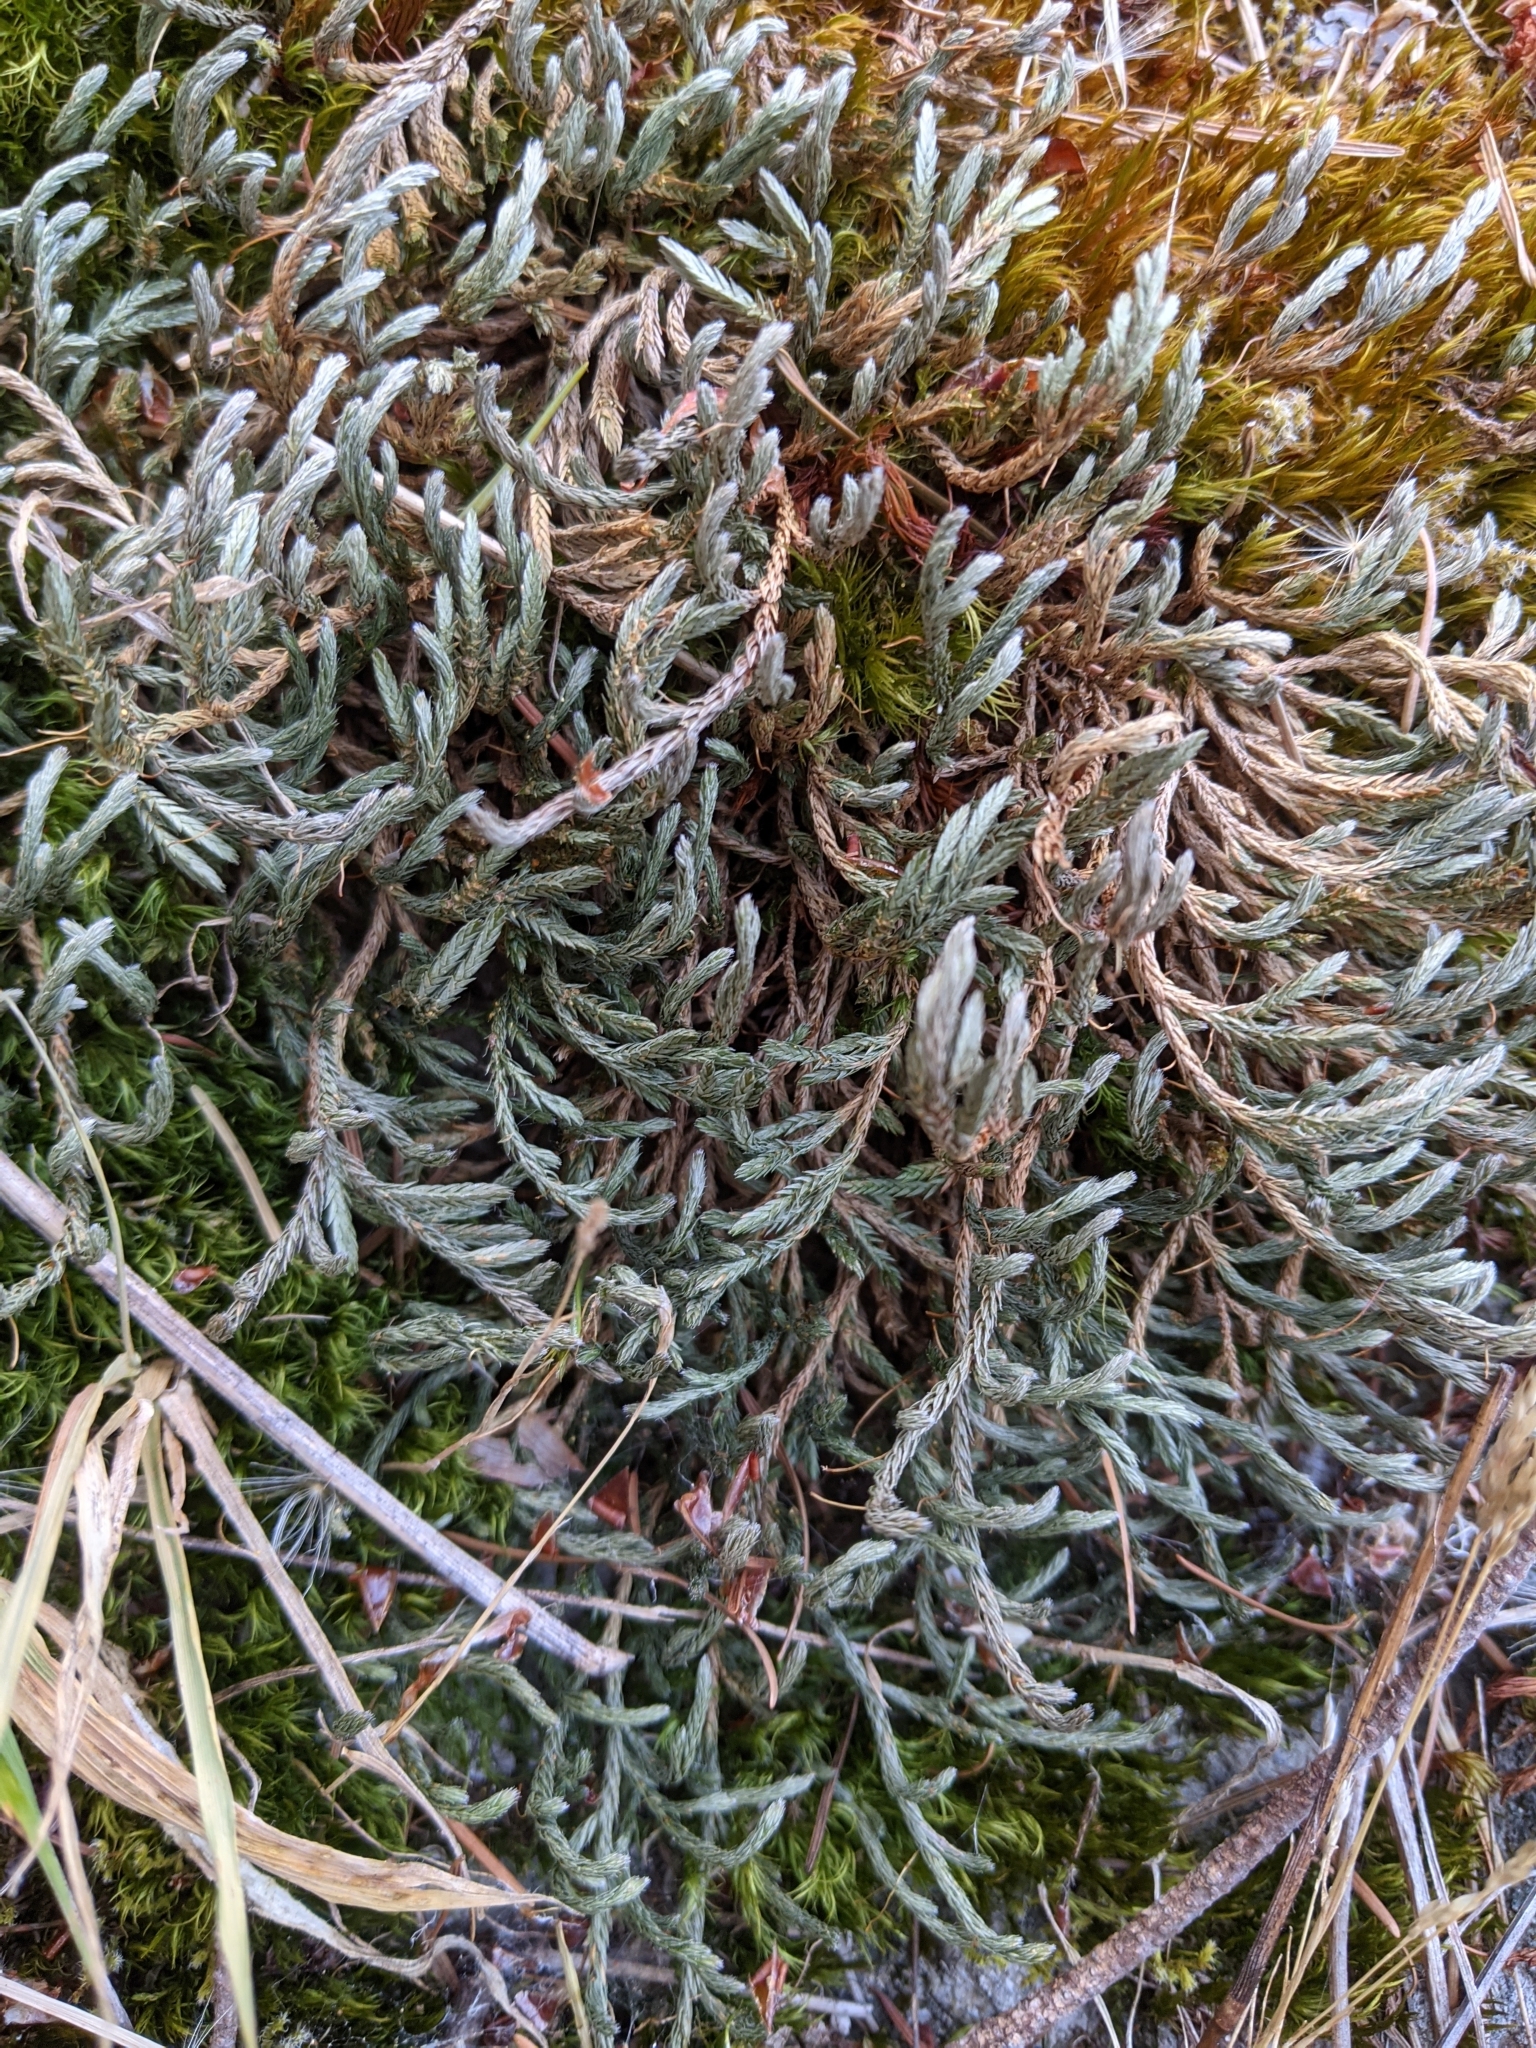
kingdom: Plantae
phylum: Tracheophyta
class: Lycopodiopsida
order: Selaginellales
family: Selaginellaceae
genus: Selaginella
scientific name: Selaginella wallacei
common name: Wallace's selaginella
